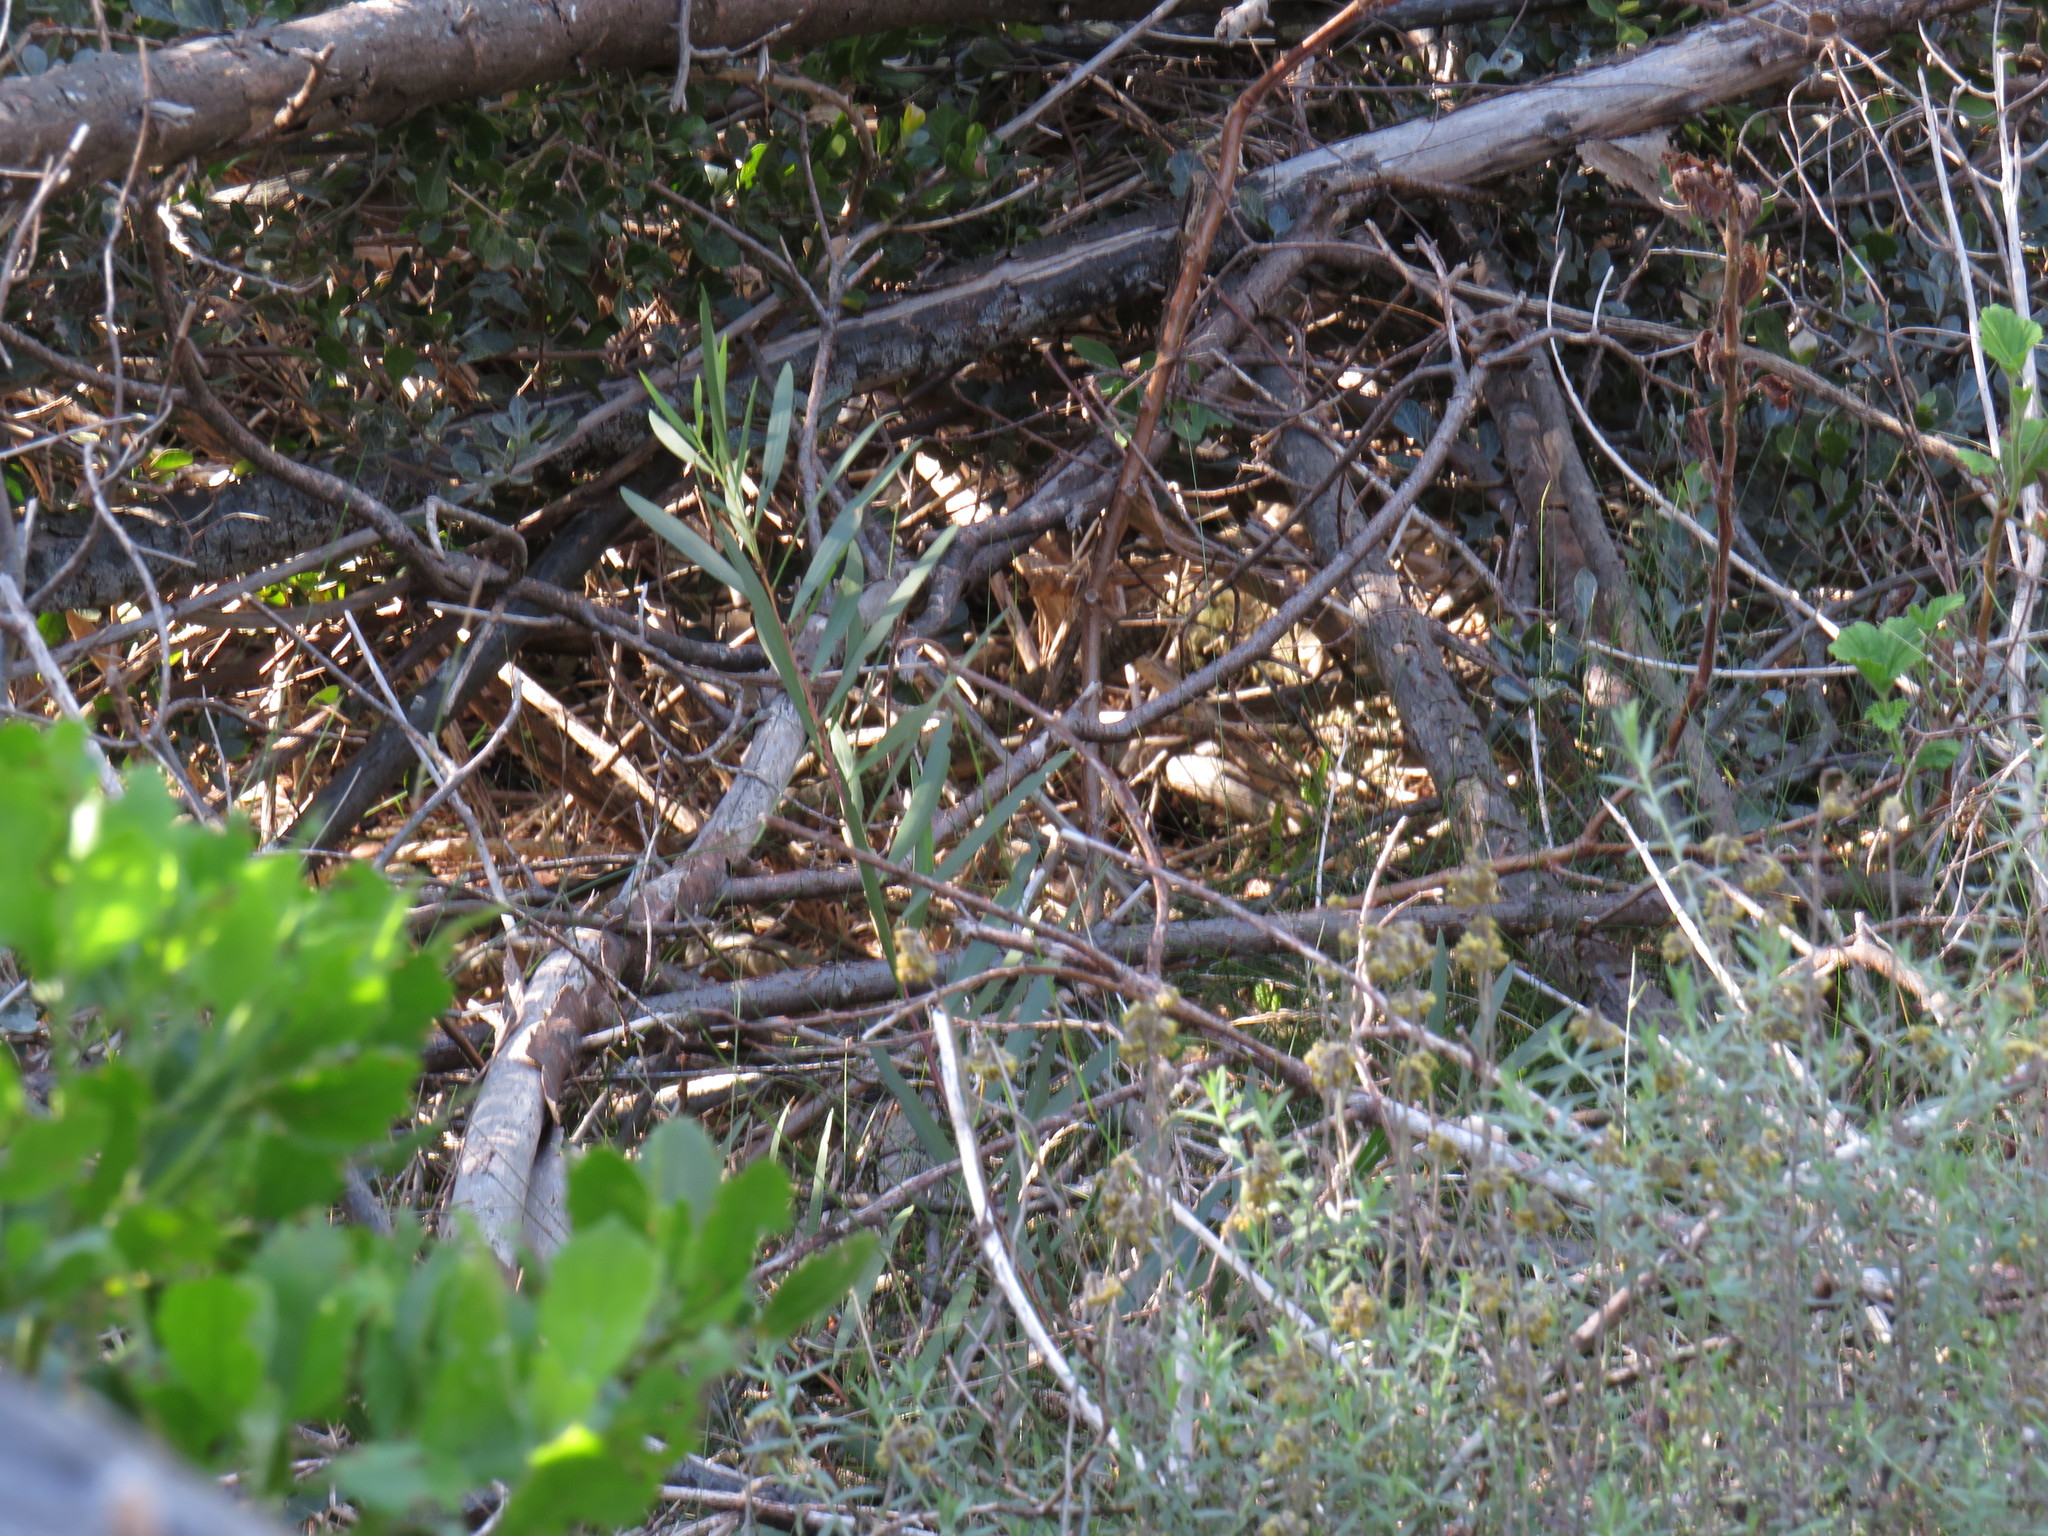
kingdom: Plantae
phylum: Tracheophyta
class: Magnoliopsida
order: Fabales
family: Fabaceae
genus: Acacia
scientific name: Acacia longifolia
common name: Sydney golden wattle
